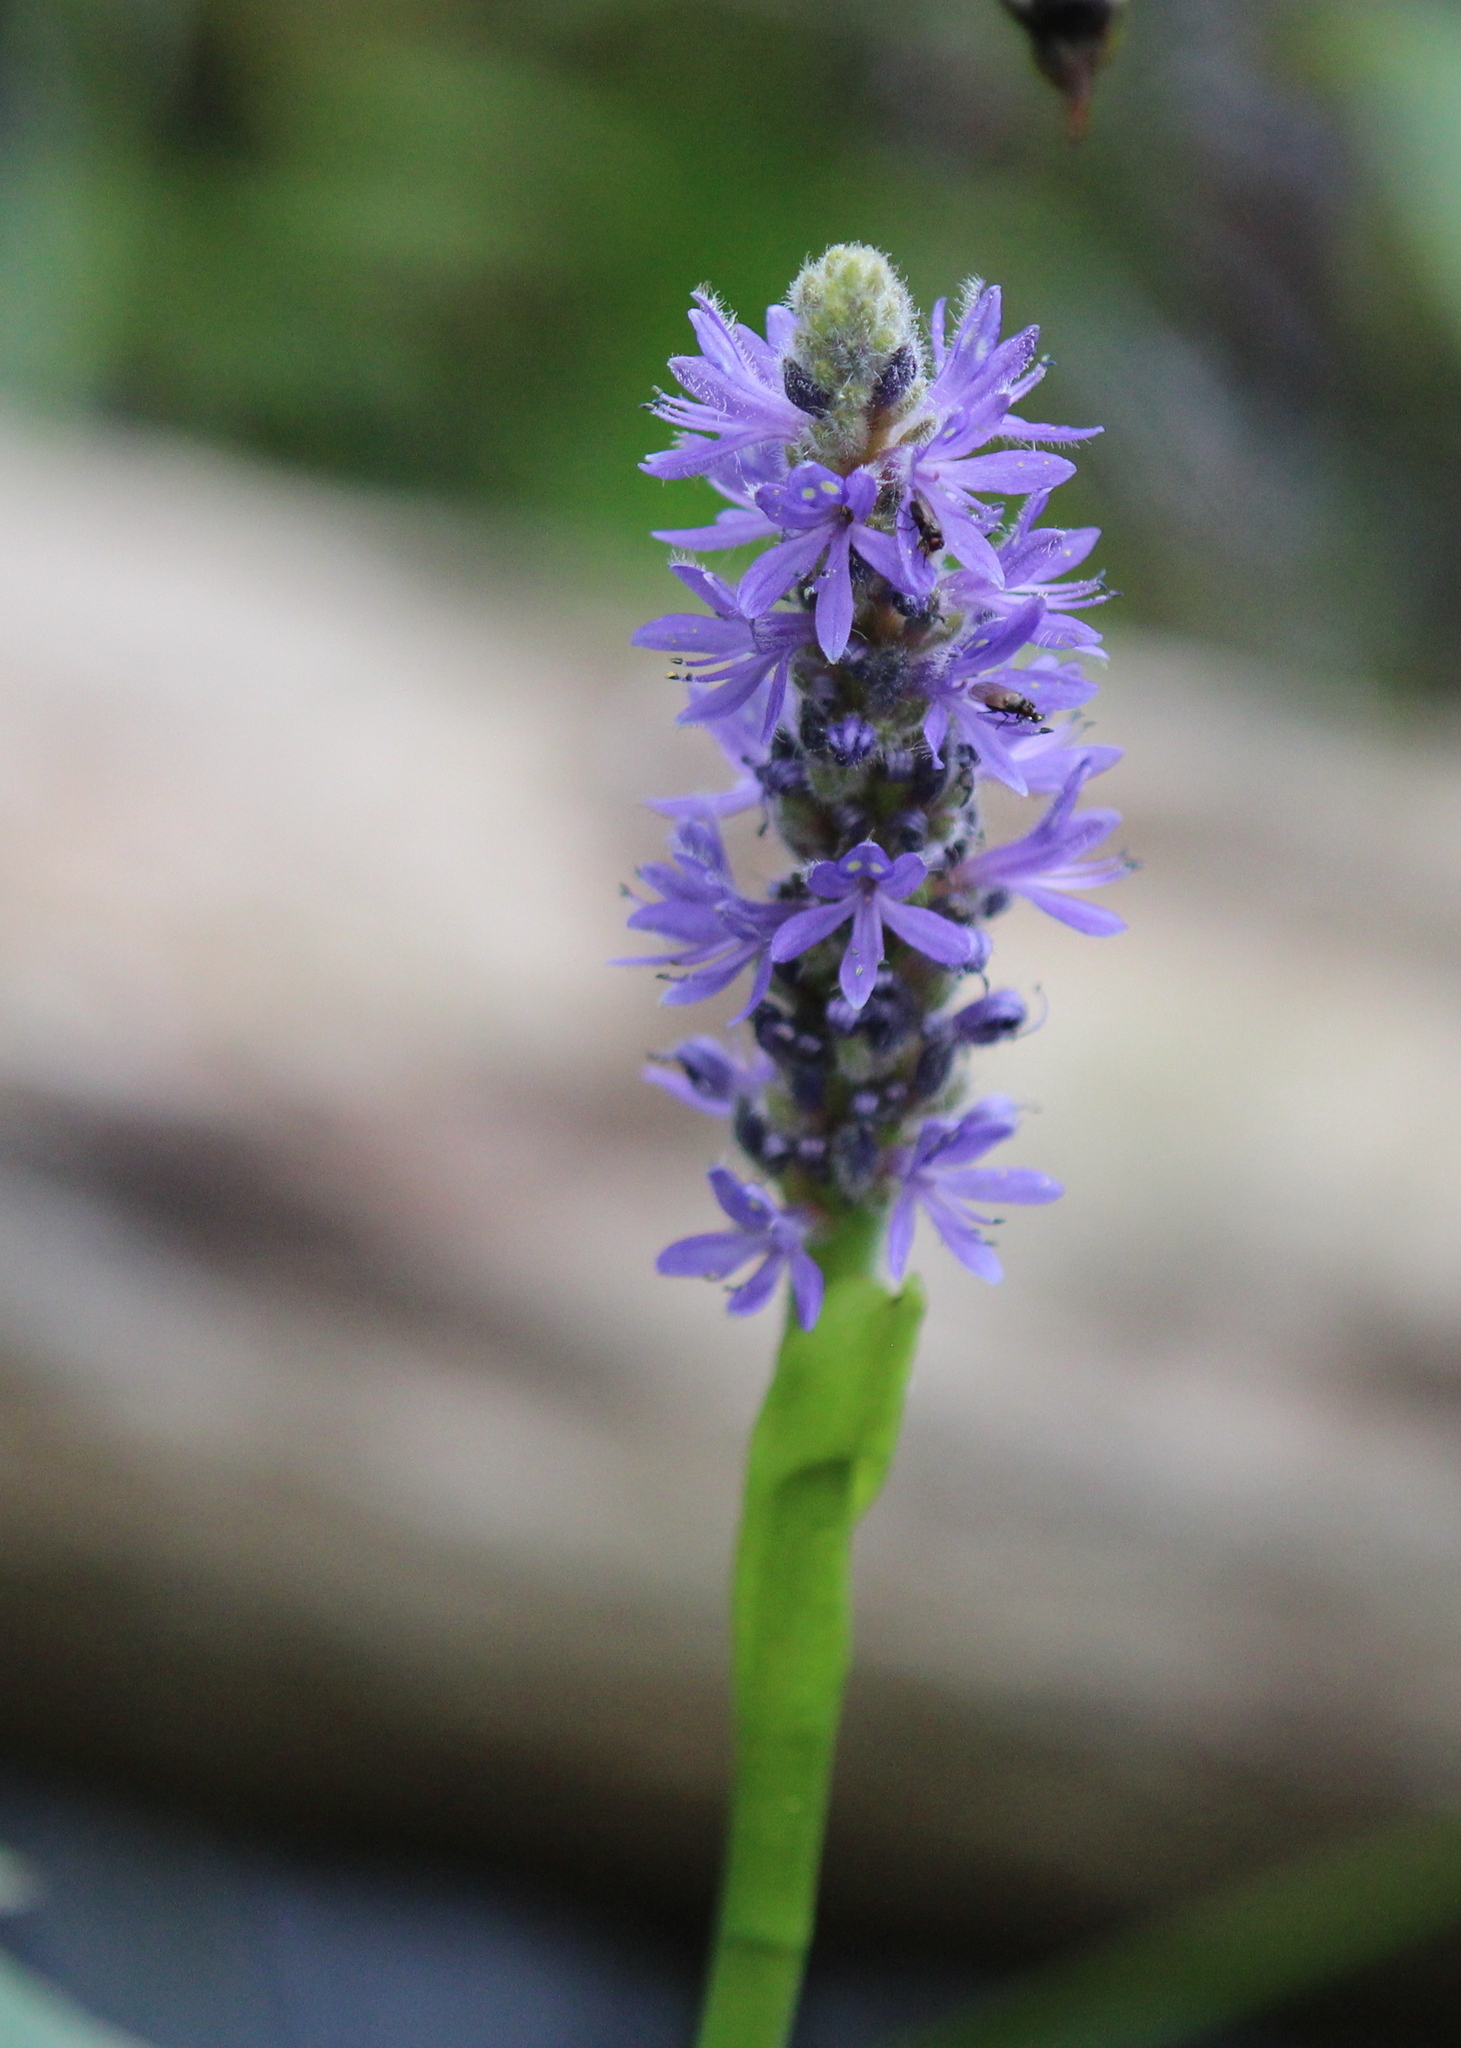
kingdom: Plantae
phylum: Tracheophyta
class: Liliopsida
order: Commelinales
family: Pontederiaceae
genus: Pontederia
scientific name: Pontederia cordata
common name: Pickerelweed
